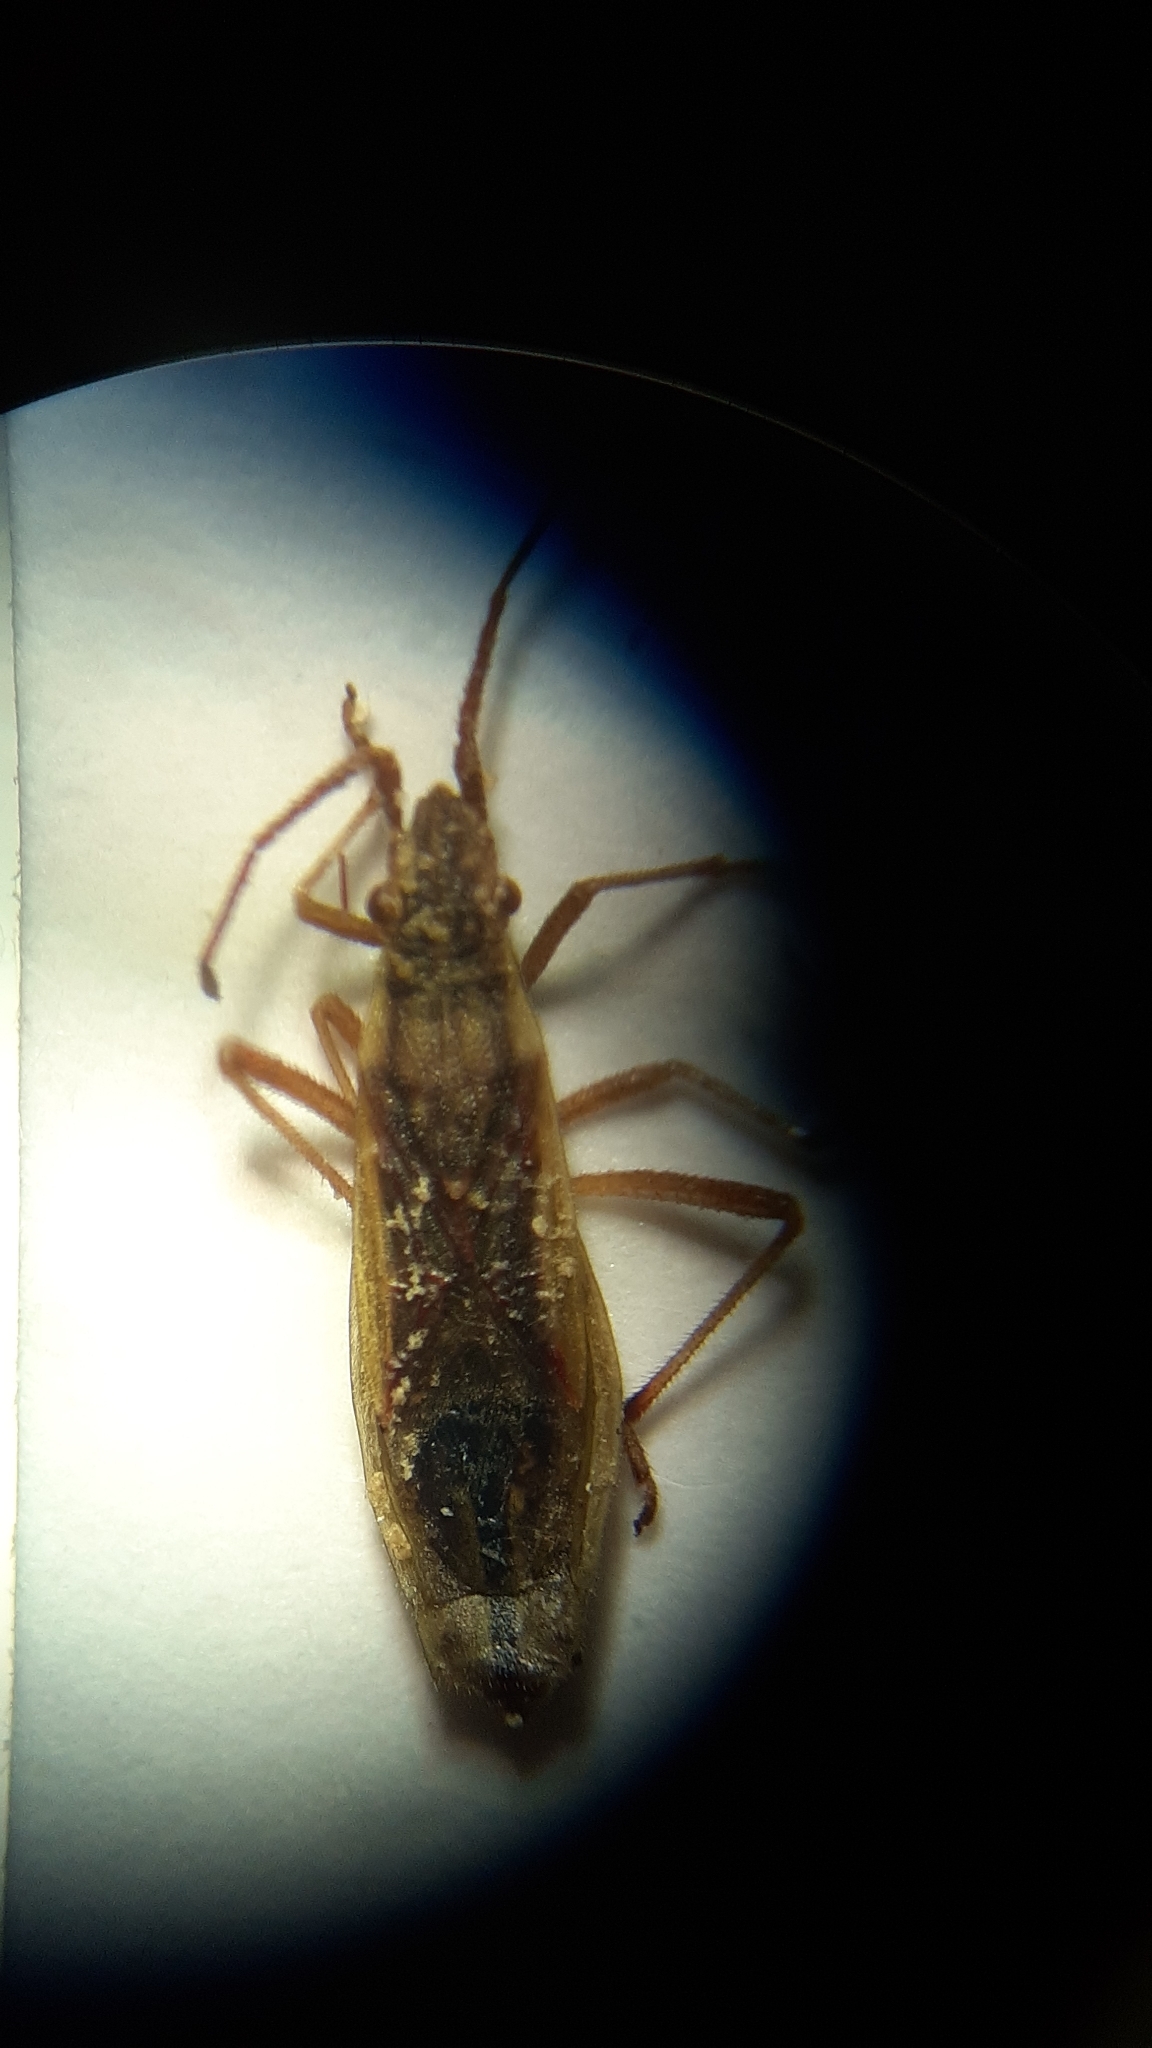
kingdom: Animalia
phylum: Arthropoda
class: Insecta
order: Hemiptera
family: Rhopalidae
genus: Myrmus
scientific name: Myrmus miriformis
